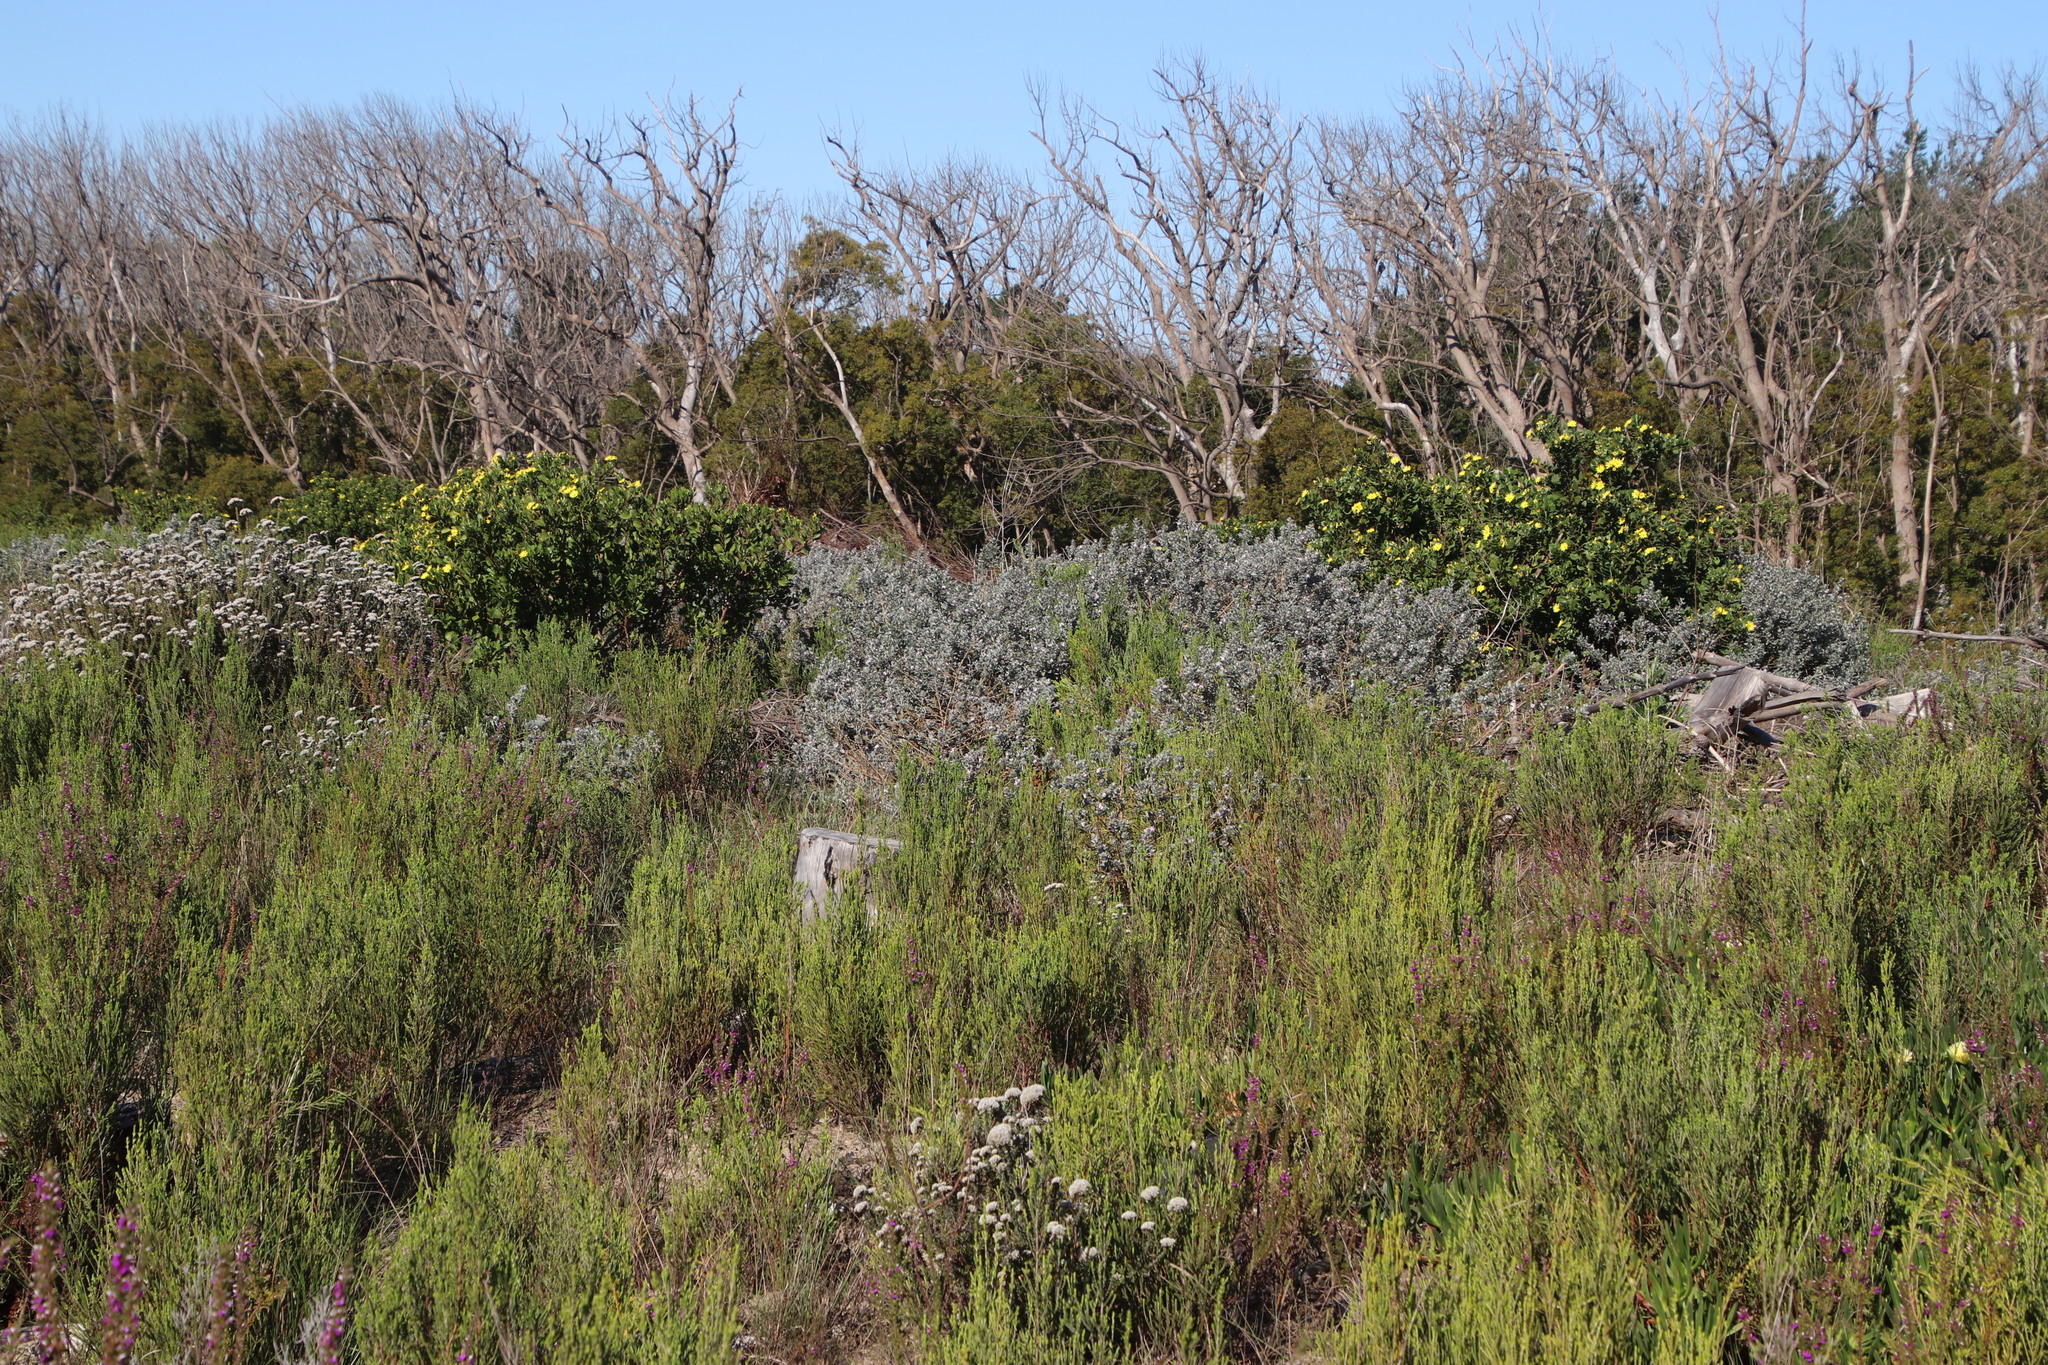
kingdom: Plantae
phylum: Tracheophyta
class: Magnoliopsida
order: Fabales
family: Fabaceae
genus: Podalyria
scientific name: Podalyria myrtillifolia
